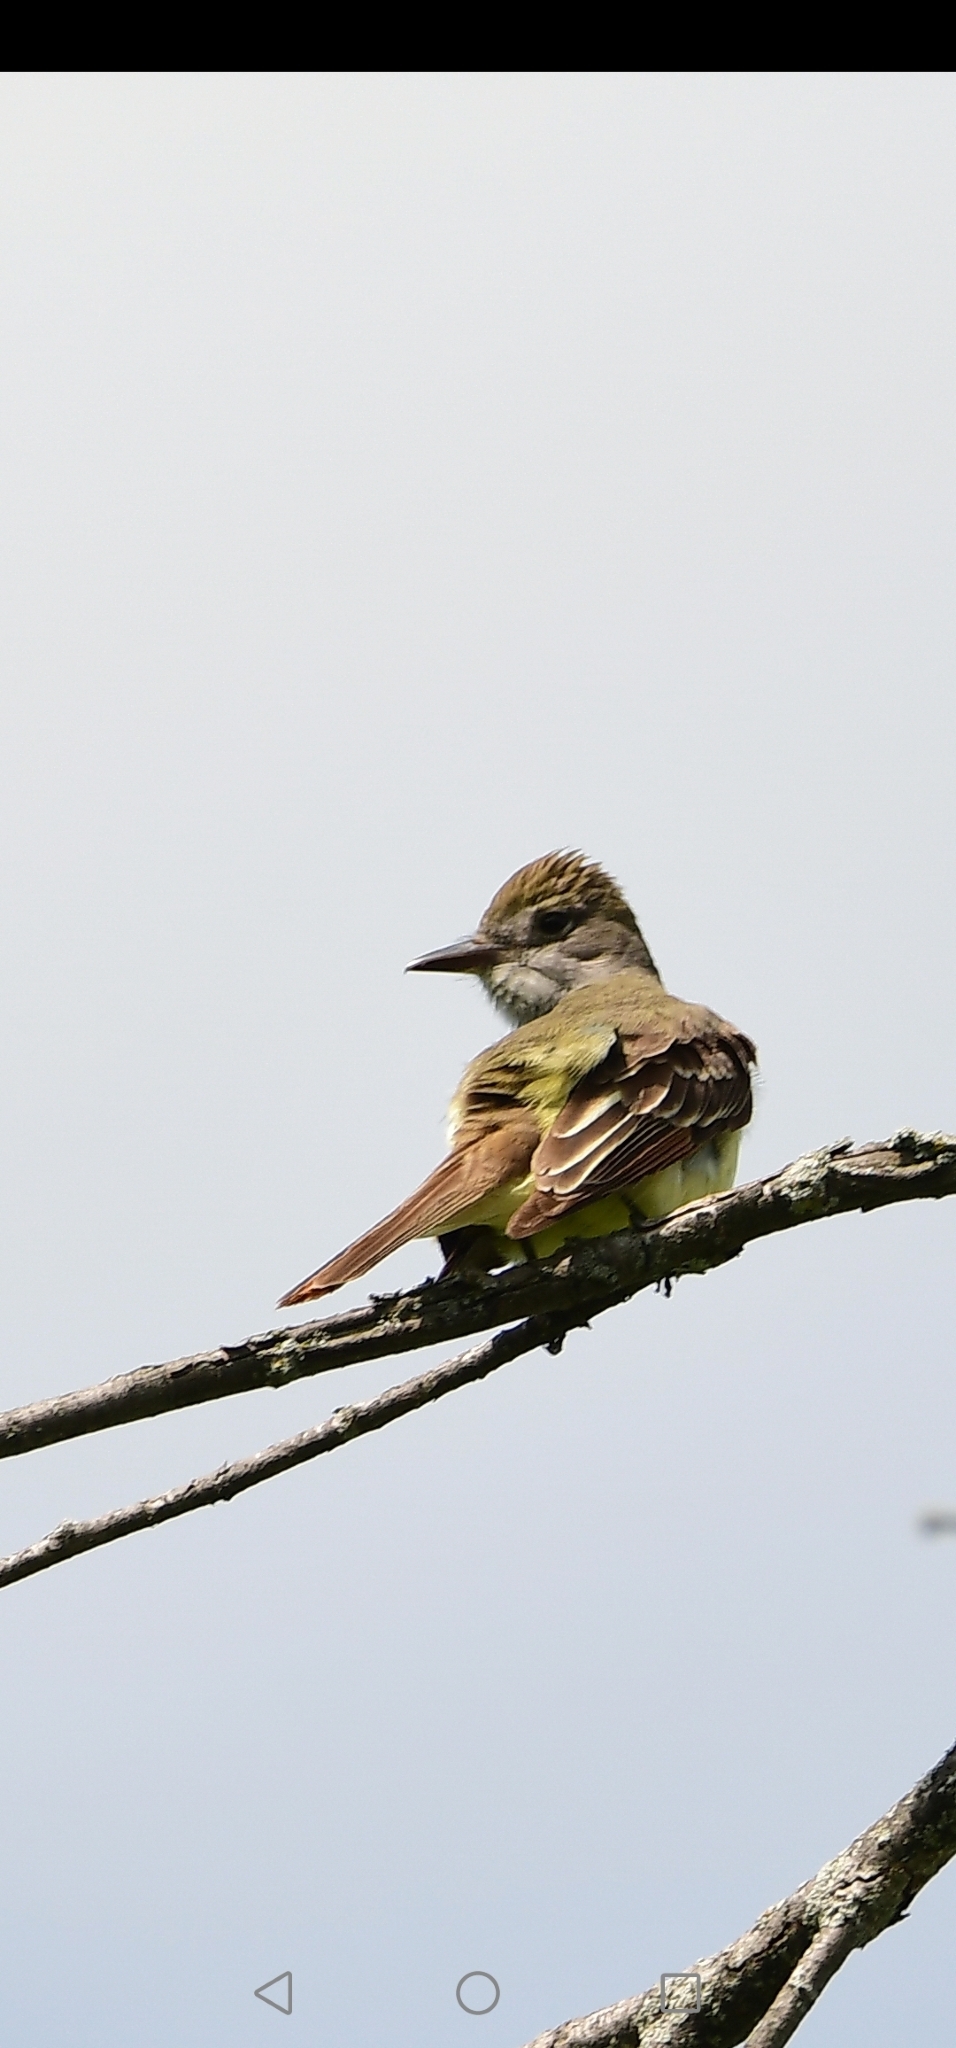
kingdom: Animalia
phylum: Chordata
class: Aves
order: Passeriformes
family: Tyrannidae
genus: Myiarchus
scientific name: Myiarchus crinitus
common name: Great crested flycatcher
